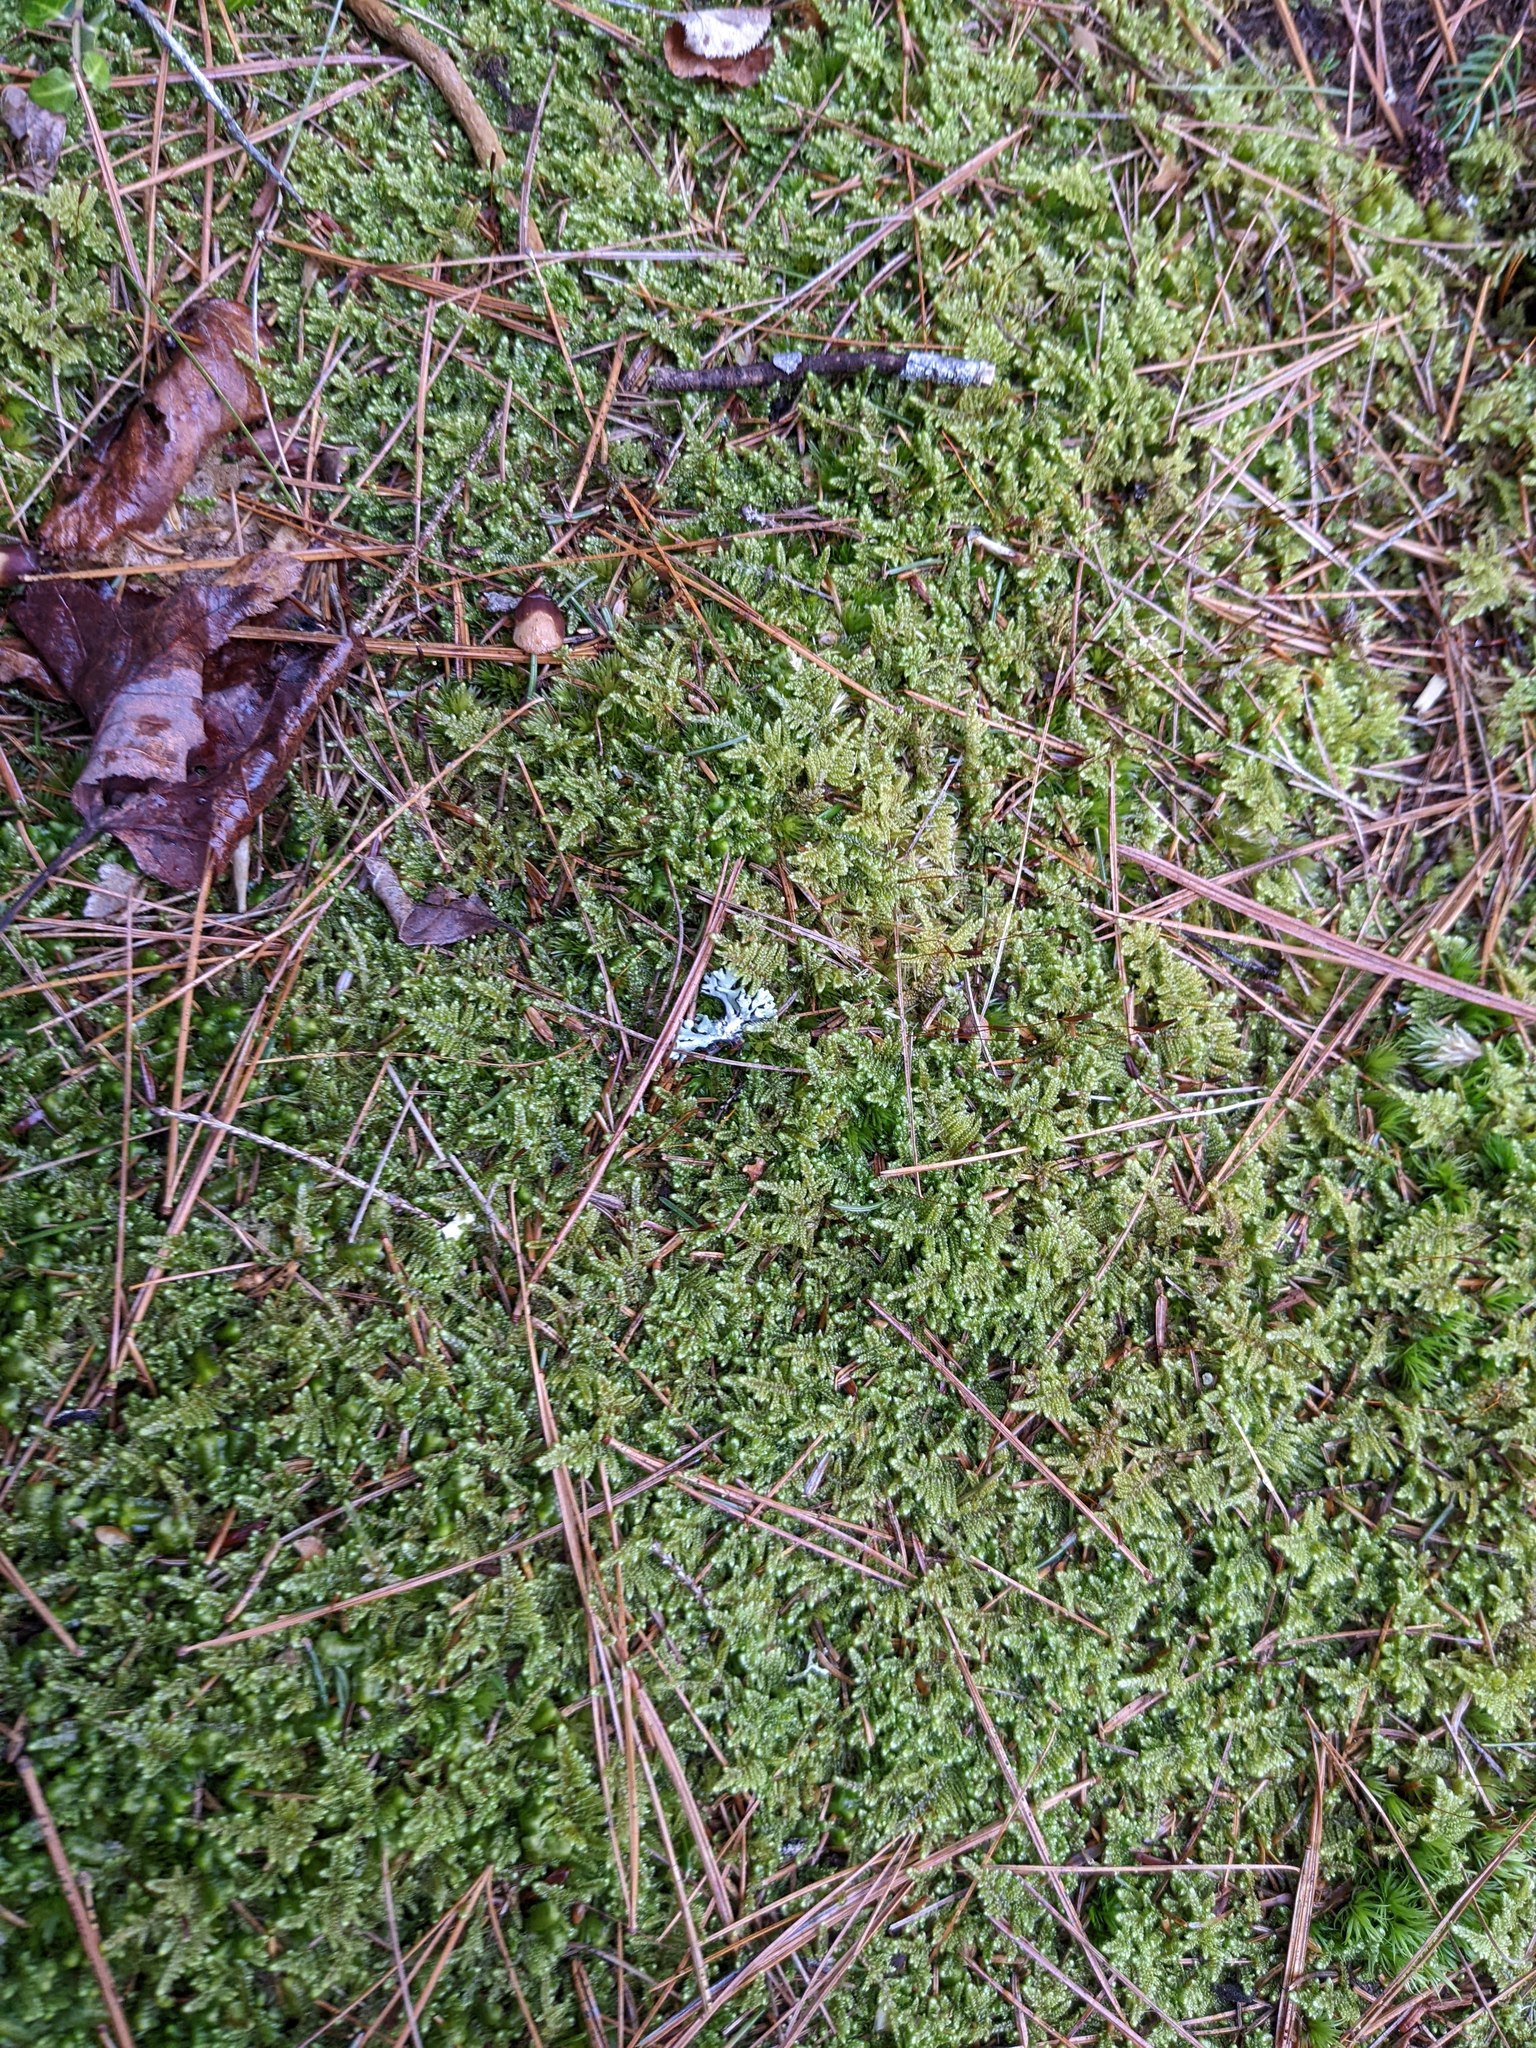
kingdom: Plantae
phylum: Bryophyta
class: Bryopsida
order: Hypnales
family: Callicladiaceae
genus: Callicladium
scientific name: Callicladium imponens
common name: Brocade moss
